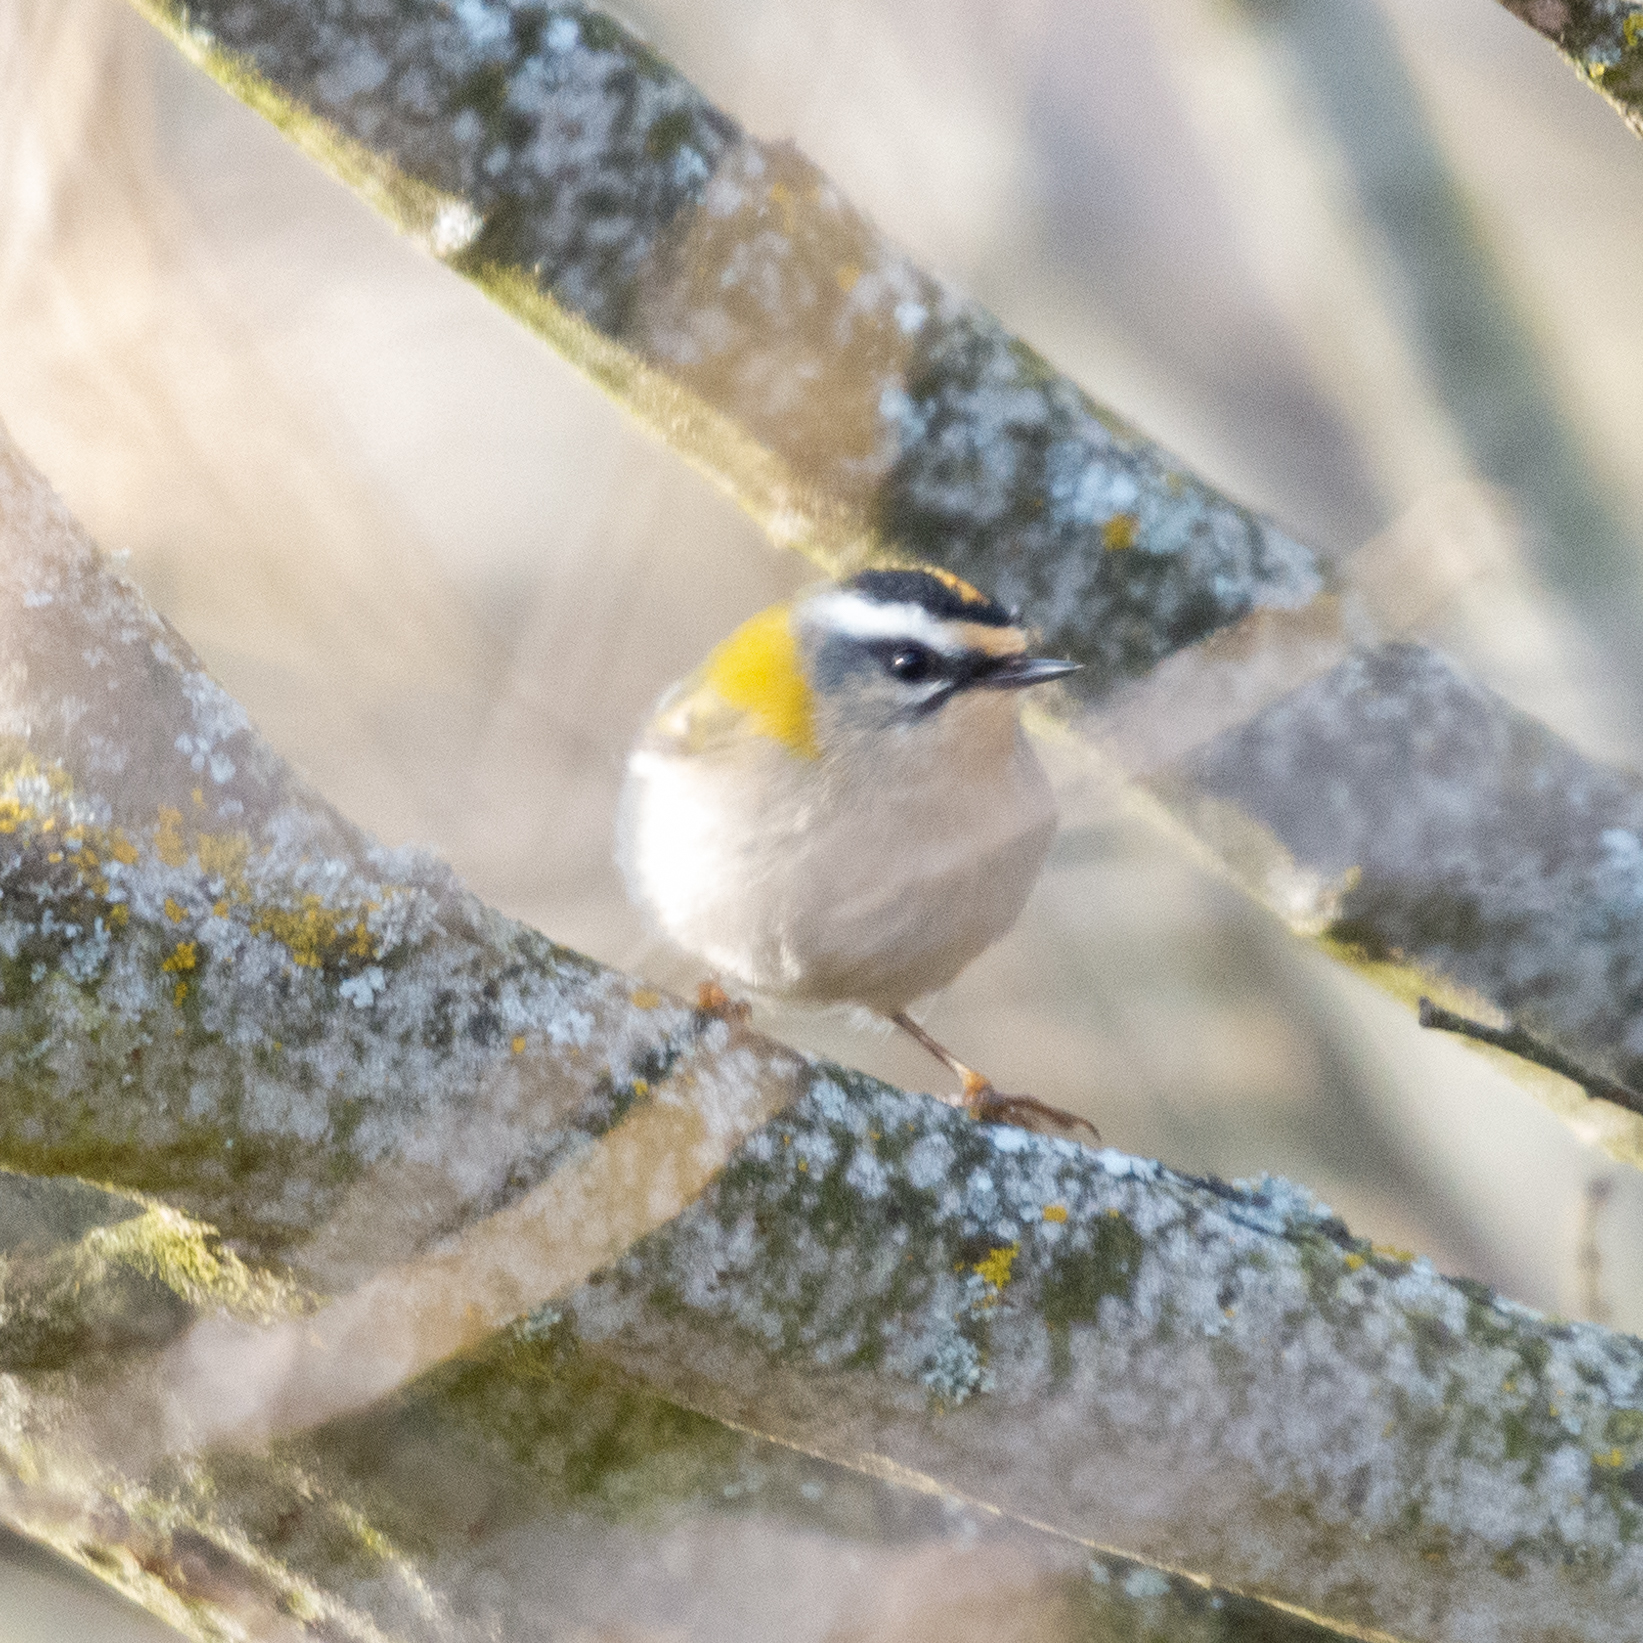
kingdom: Animalia
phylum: Chordata
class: Aves
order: Passeriformes
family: Regulidae
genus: Regulus
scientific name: Regulus ignicapilla
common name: Firecrest
